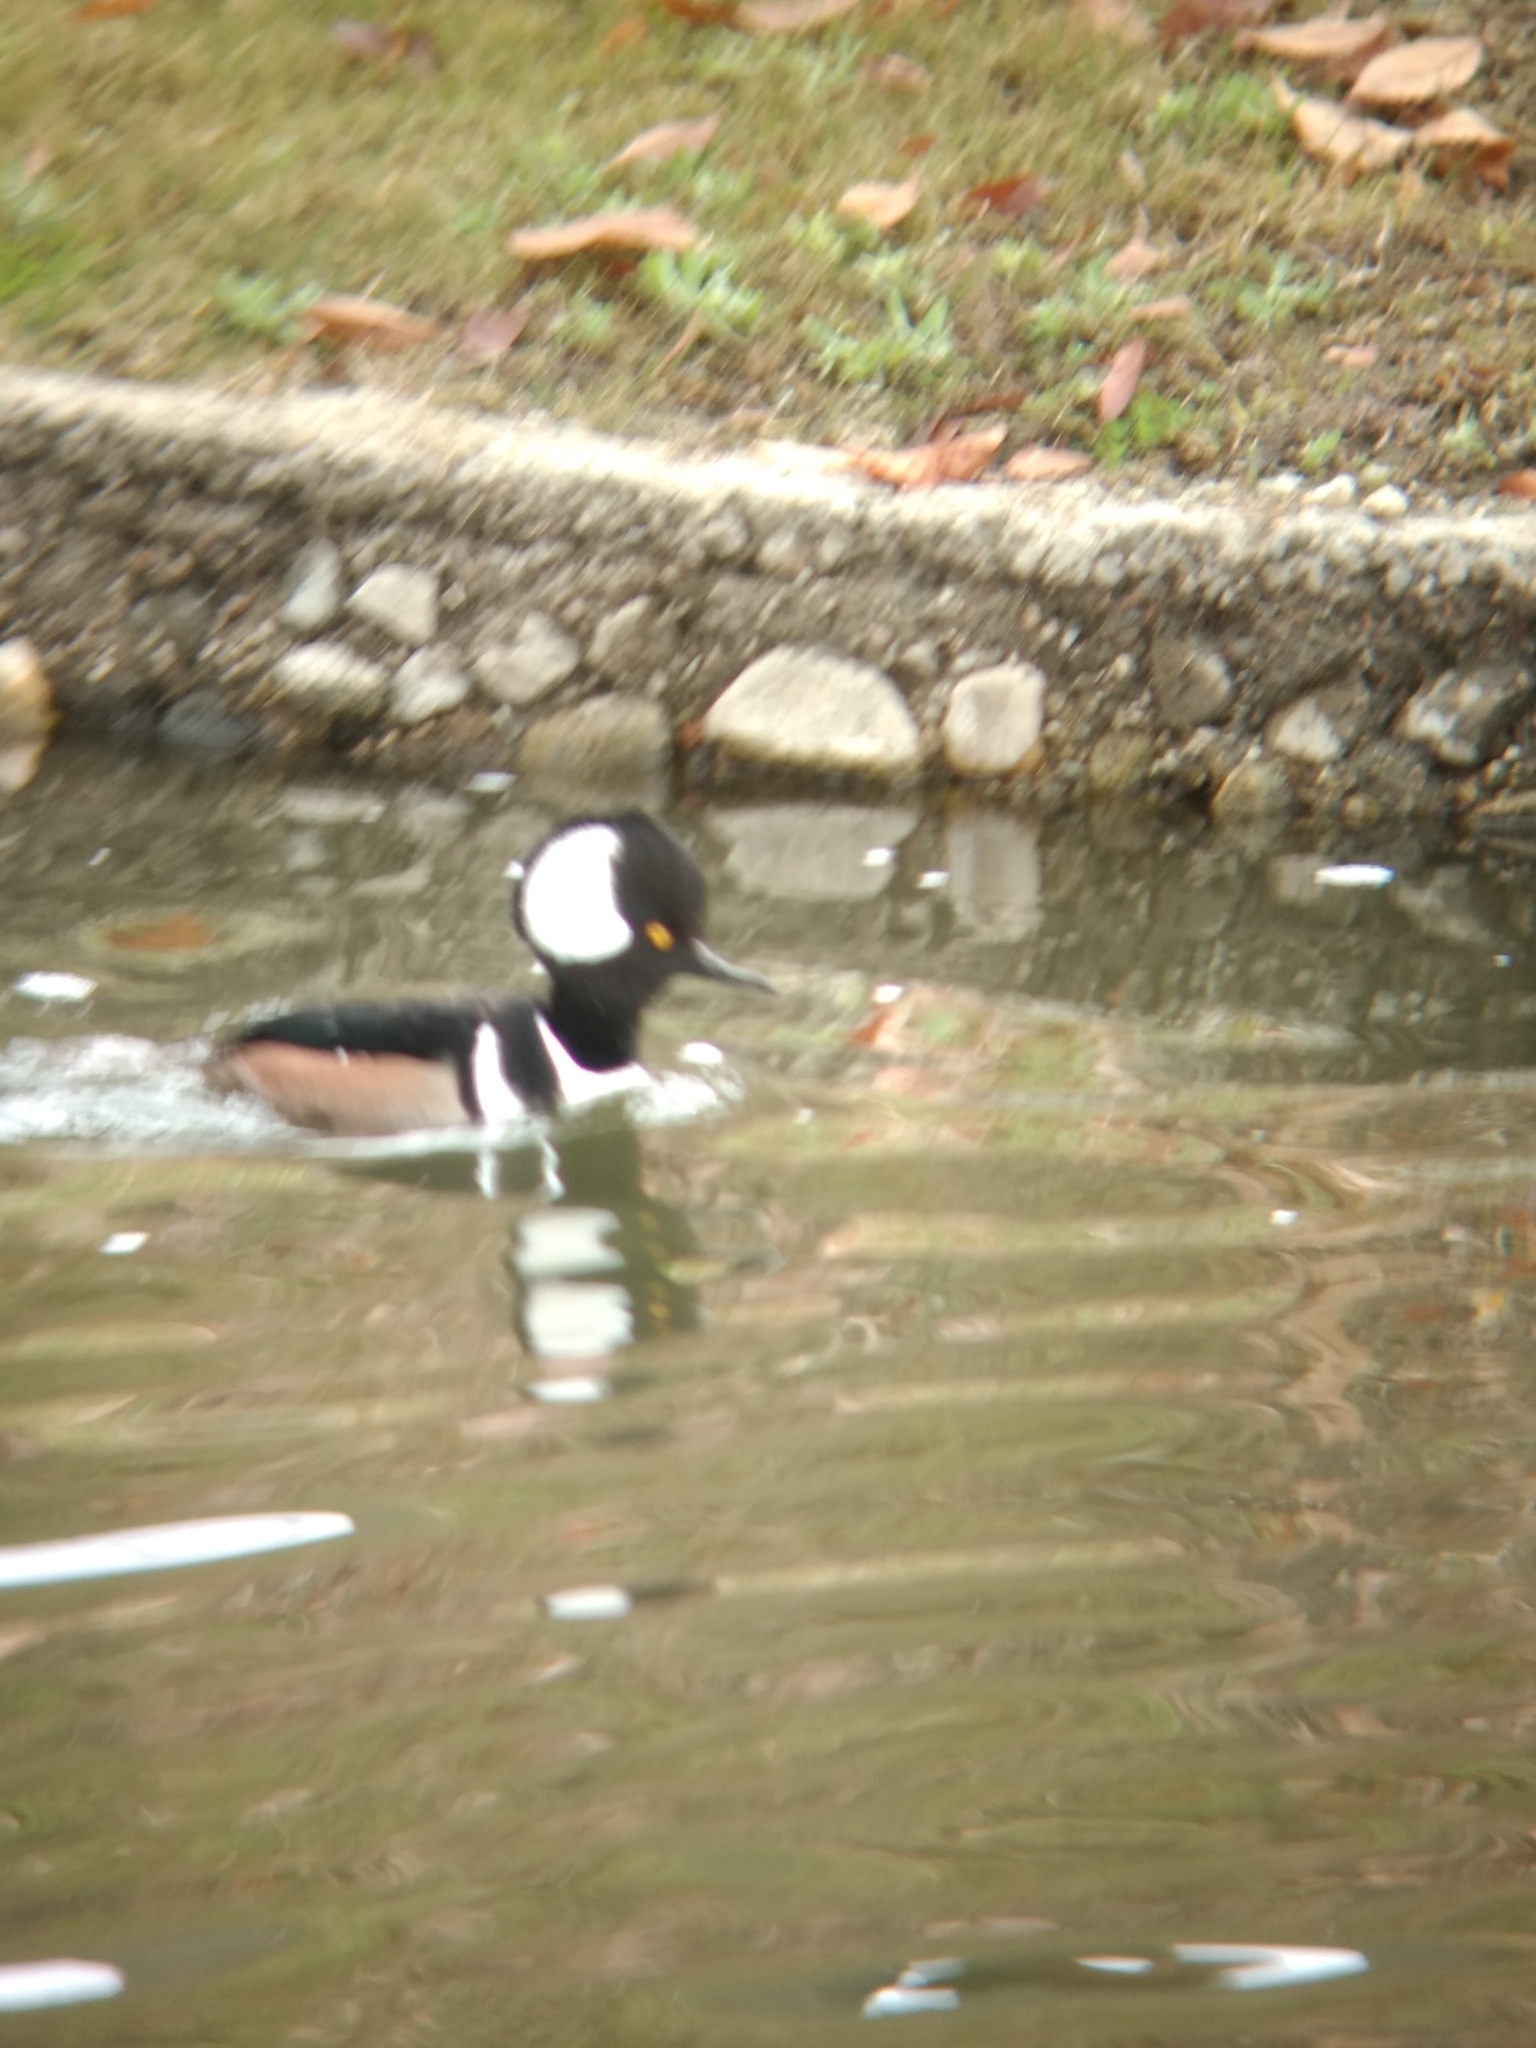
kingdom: Animalia
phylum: Chordata
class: Aves
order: Anseriformes
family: Anatidae
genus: Lophodytes
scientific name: Lophodytes cucullatus
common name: Hooded merganser
